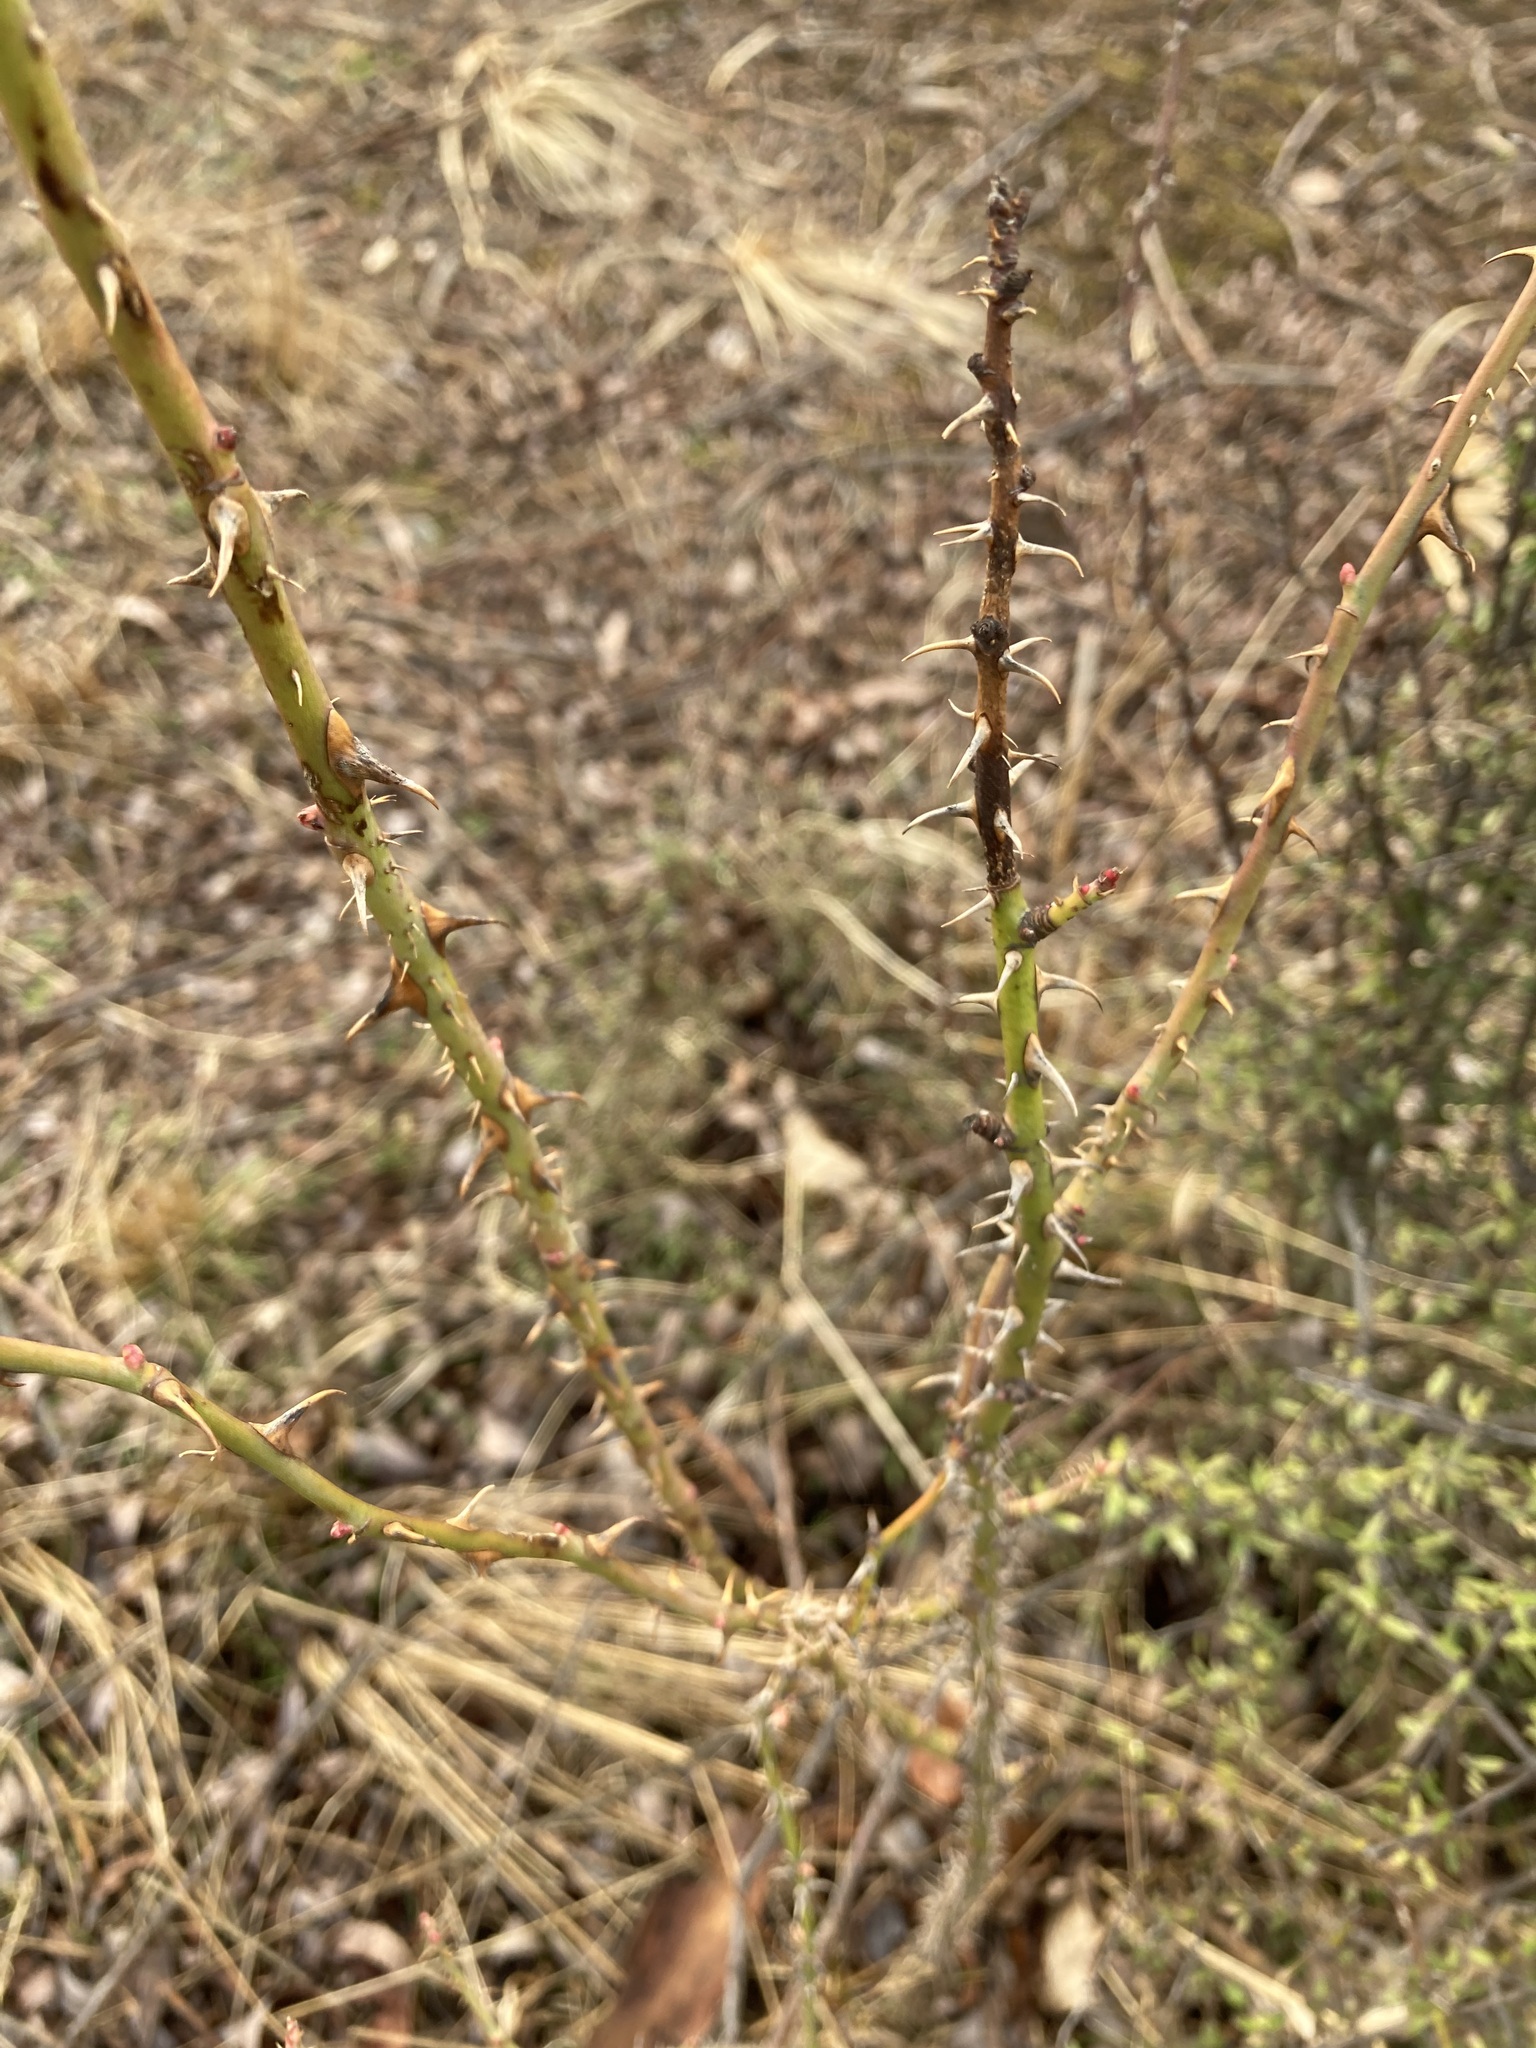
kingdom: Plantae
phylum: Tracheophyta
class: Magnoliopsida
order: Rosales
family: Rosaceae
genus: Rosa
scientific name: Rosa rubiginosa
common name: Sweet-briar
